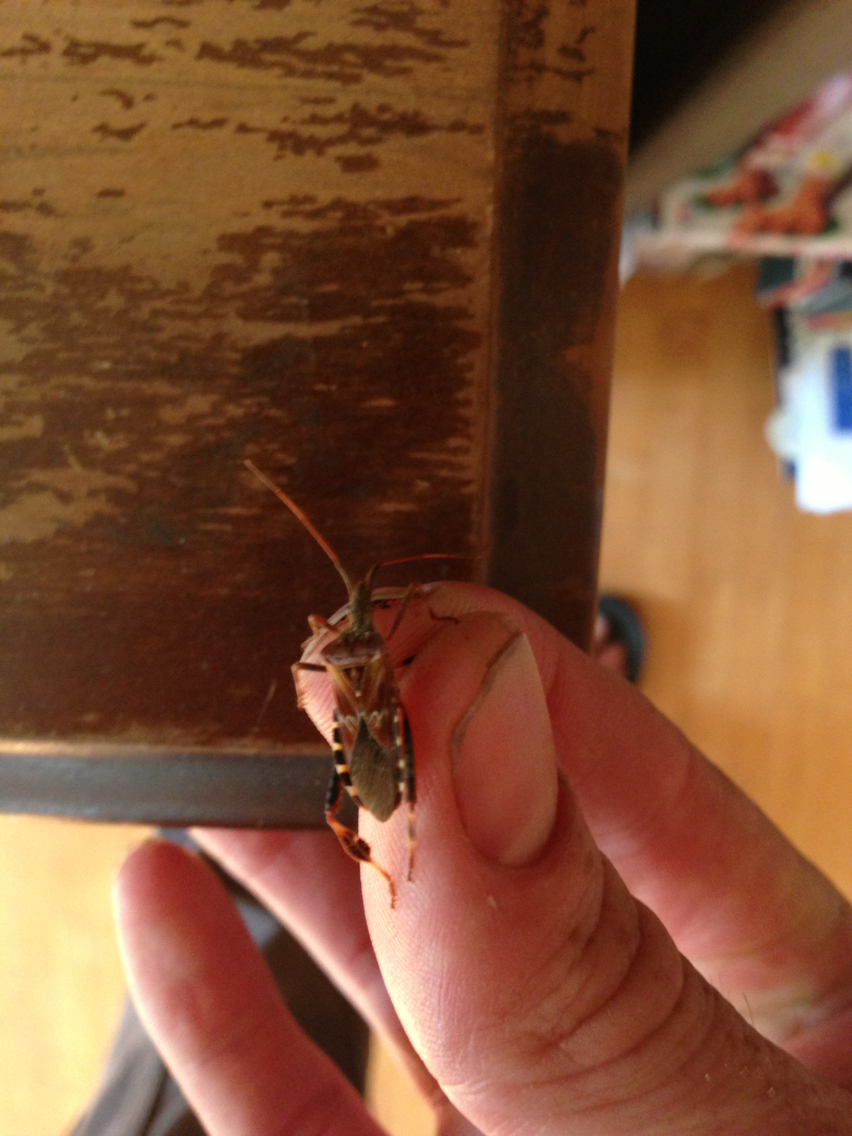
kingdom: Animalia
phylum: Arthropoda
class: Insecta
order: Hemiptera
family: Coreidae
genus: Leptoglossus
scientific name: Leptoglossus occidentalis
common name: Western conifer-seed bug
